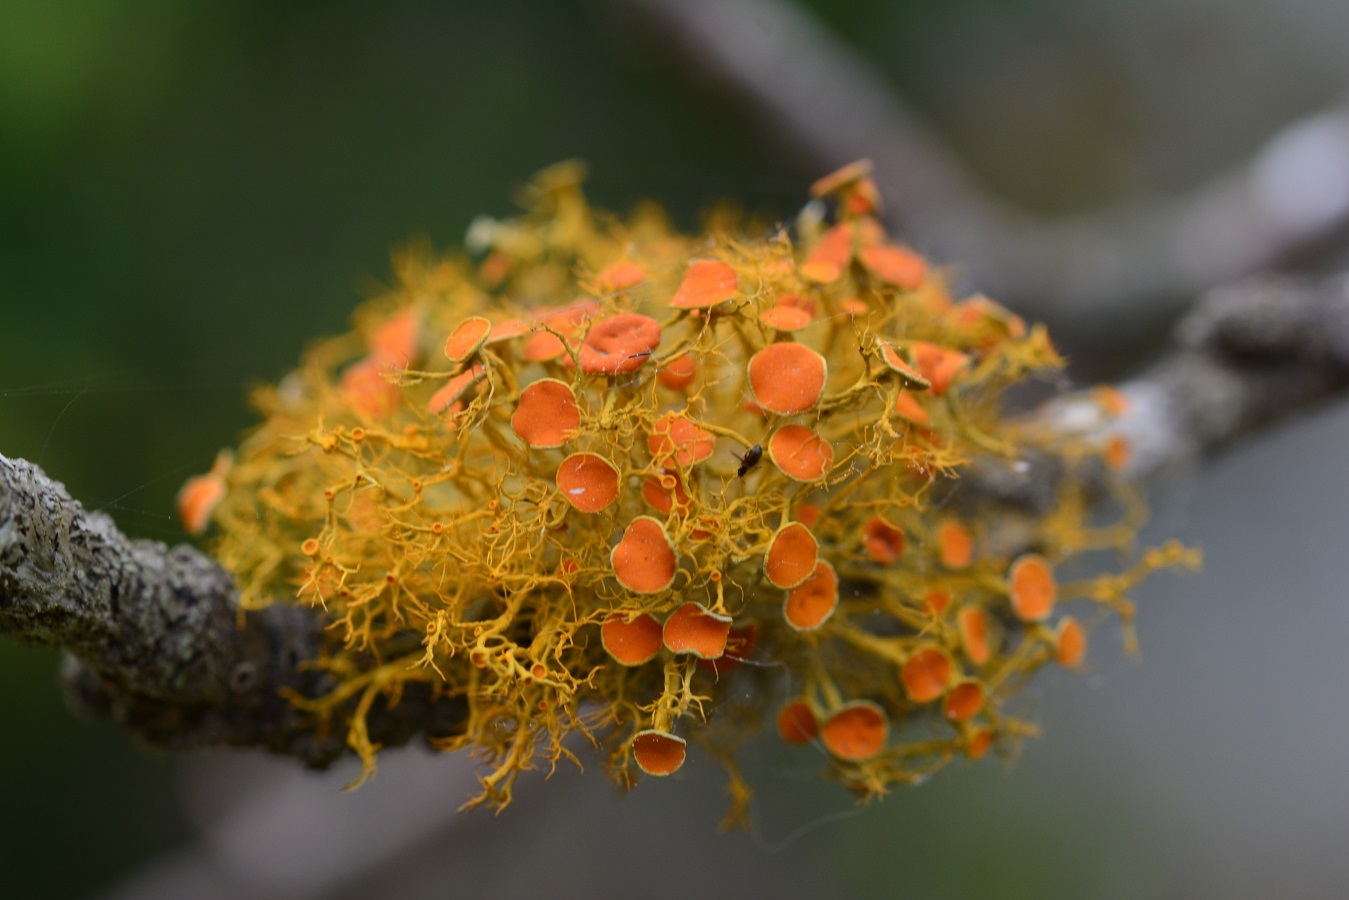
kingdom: Fungi
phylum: Ascomycota
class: Lecanoromycetes
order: Teloschistales
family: Teloschistaceae
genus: Teloschistes
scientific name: Teloschistes exilis
